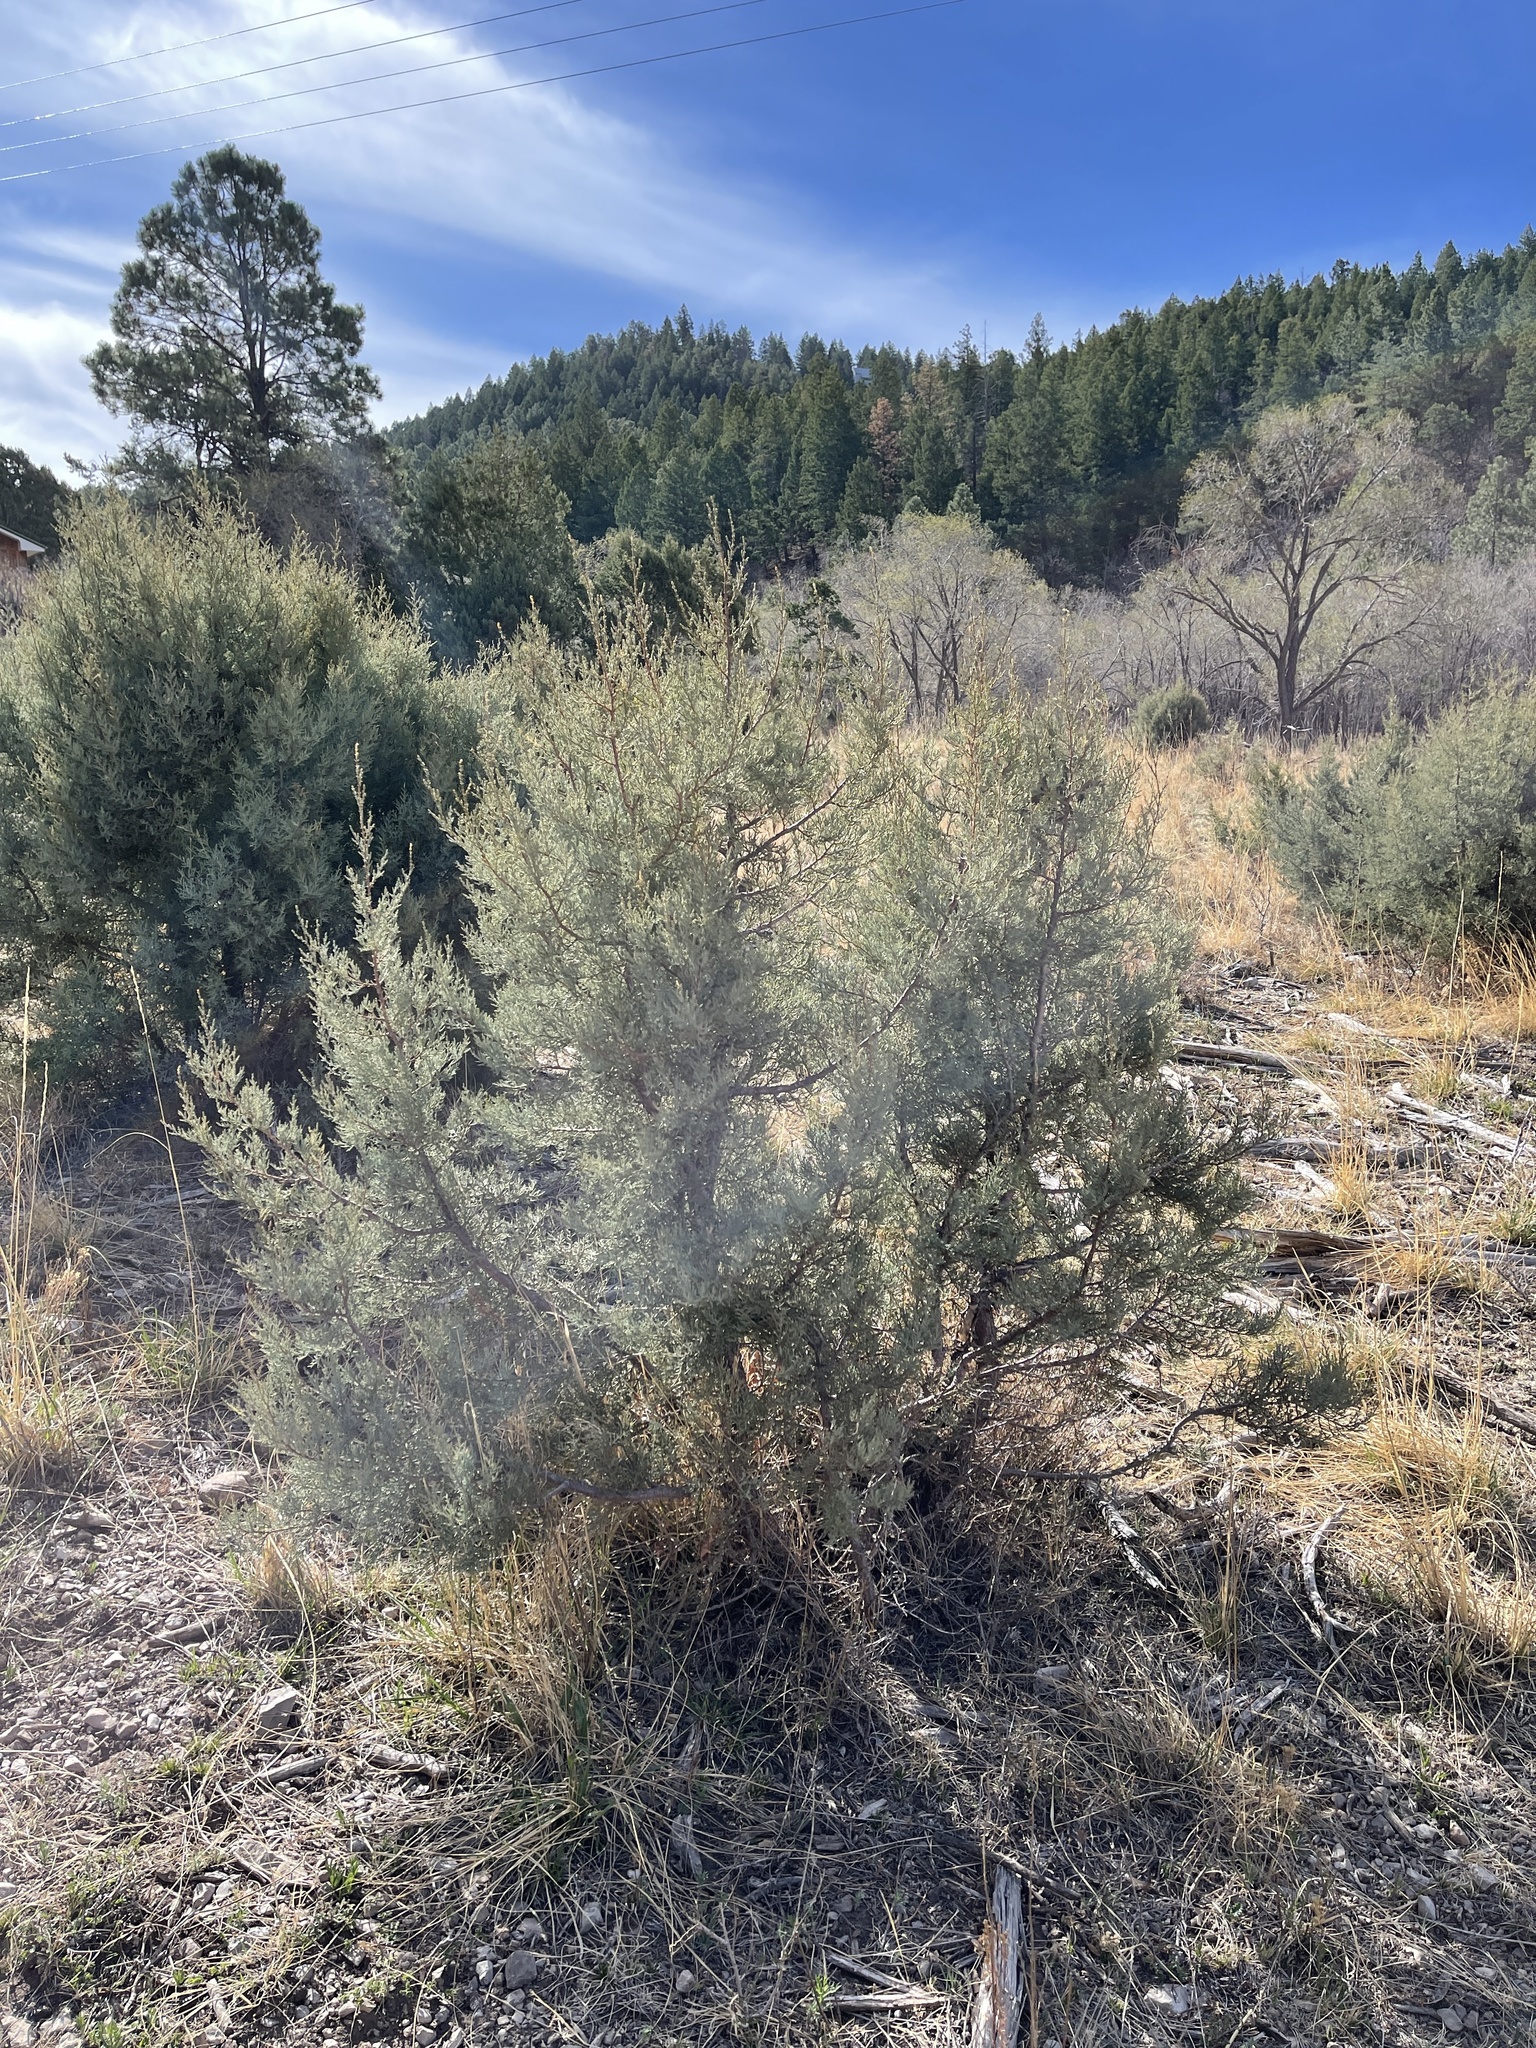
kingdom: Plantae
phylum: Tracheophyta
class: Pinopsida
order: Pinales
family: Cupressaceae
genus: Juniperus
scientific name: Juniperus deppeana
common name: Alligator juniper
